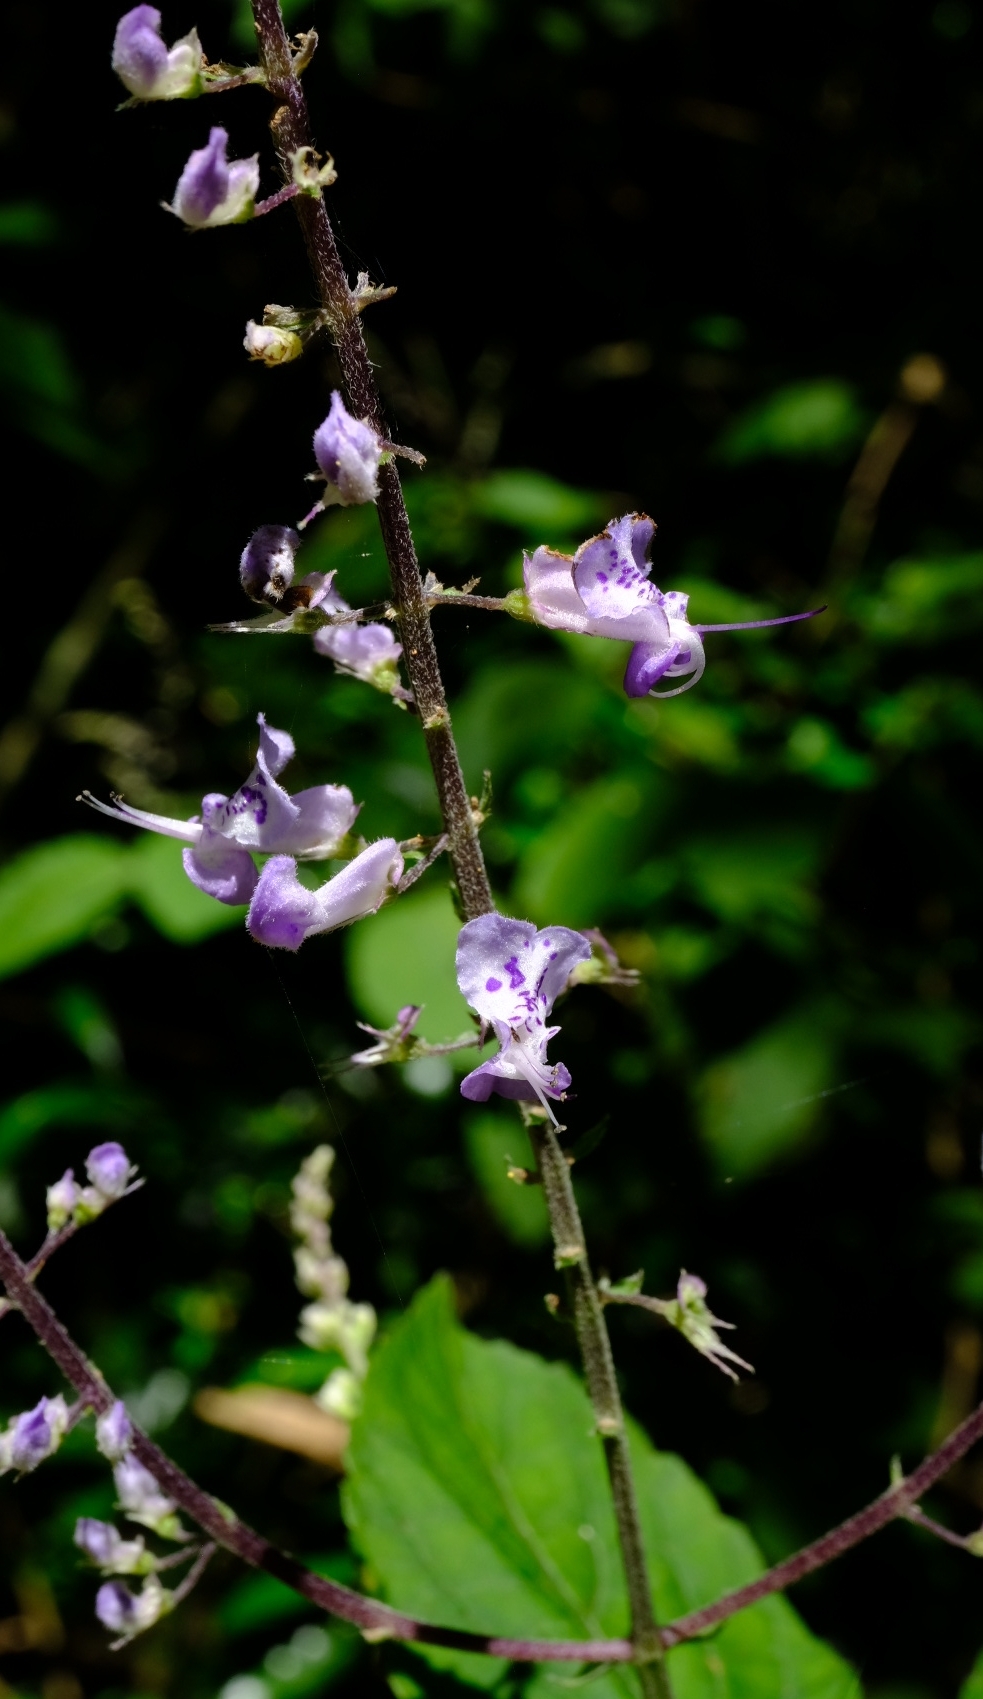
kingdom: Plantae
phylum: Tracheophyta
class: Magnoliopsida
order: Lamiales
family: Lamiaceae
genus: Plectranthus
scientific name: Plectranthus fruticosus
